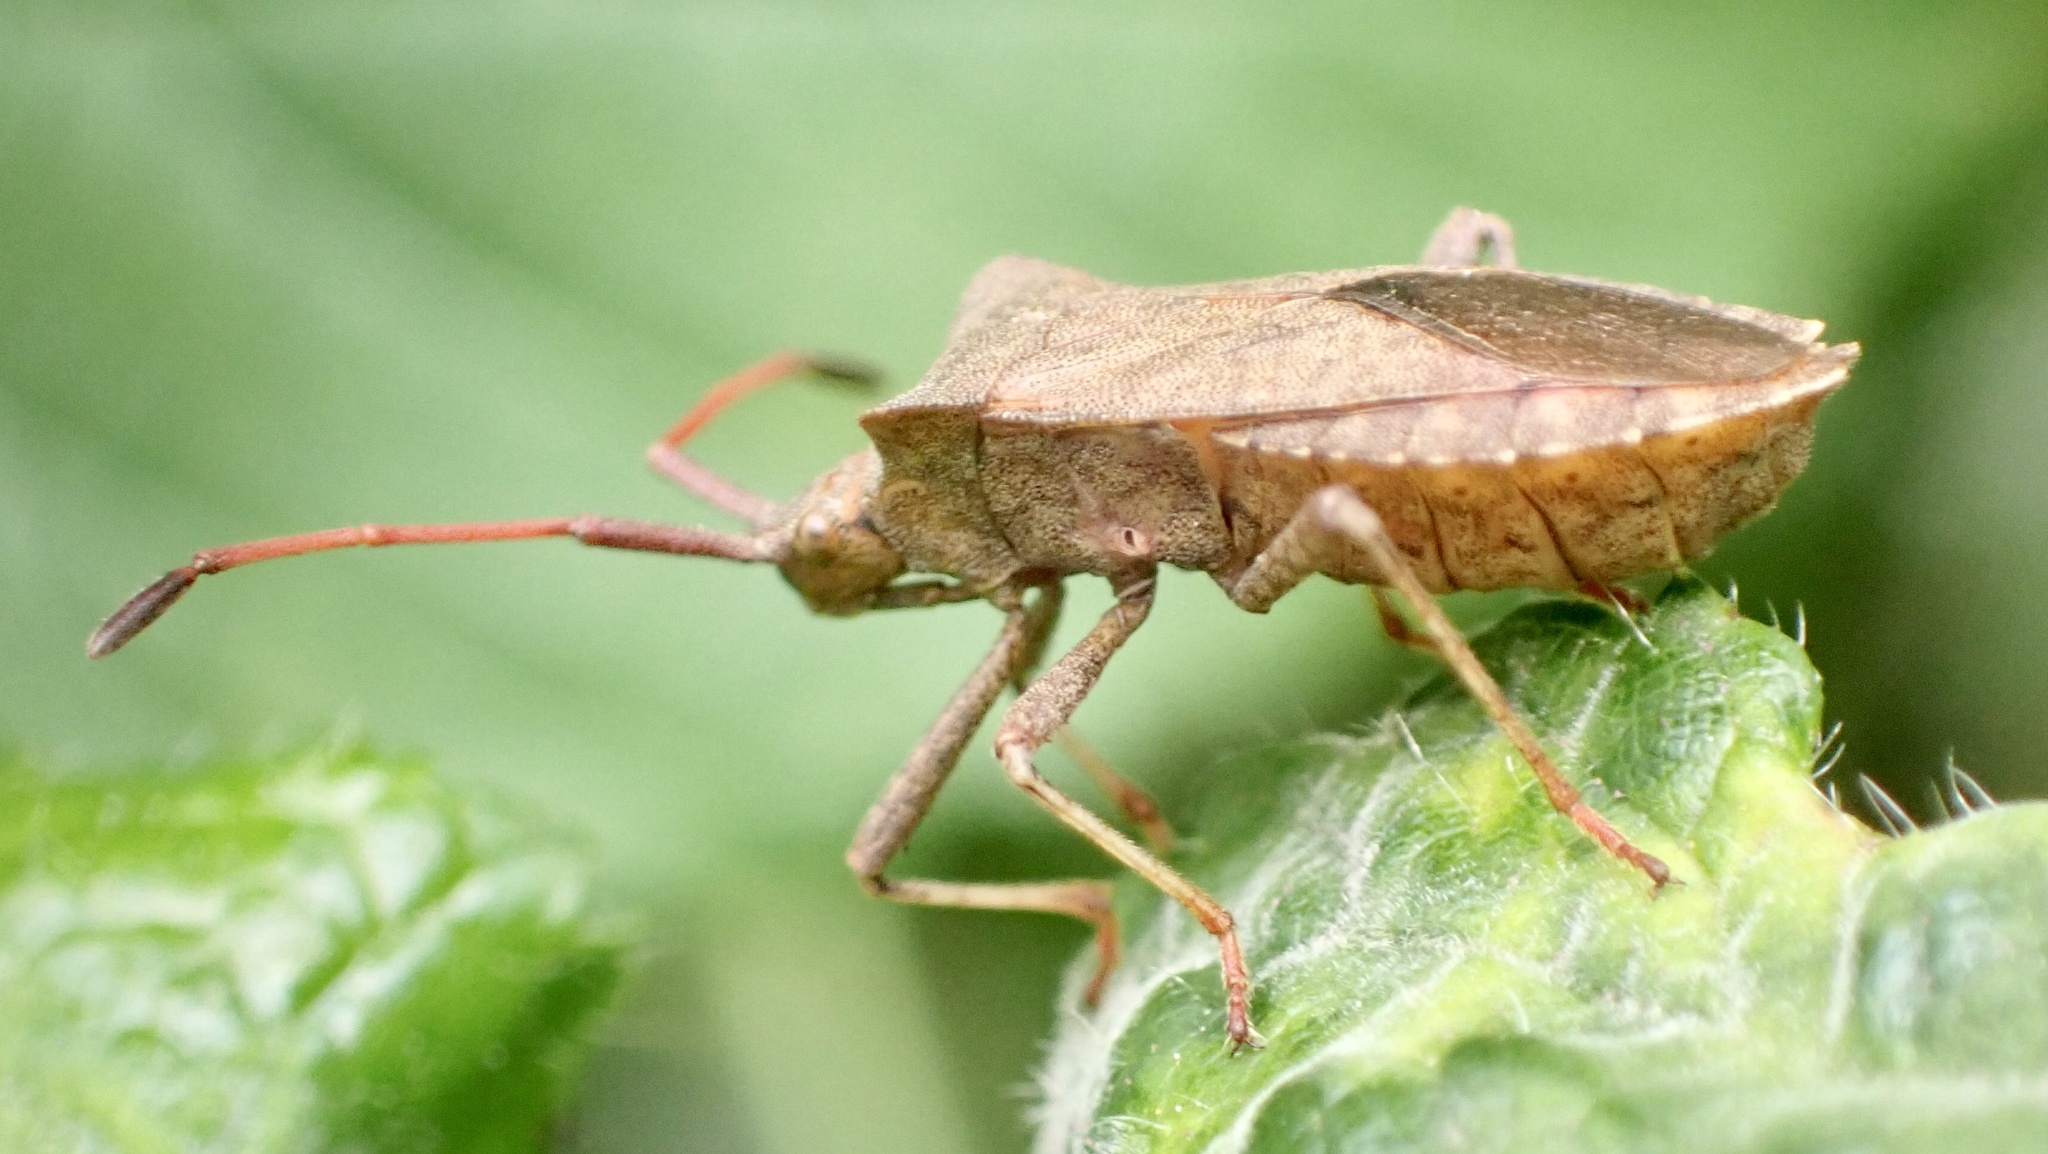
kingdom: Animalia
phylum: Arthropoda
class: Insecta
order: Hemiptera
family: Coreidae
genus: Coreus
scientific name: Coreus marginatus
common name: Dock bug
